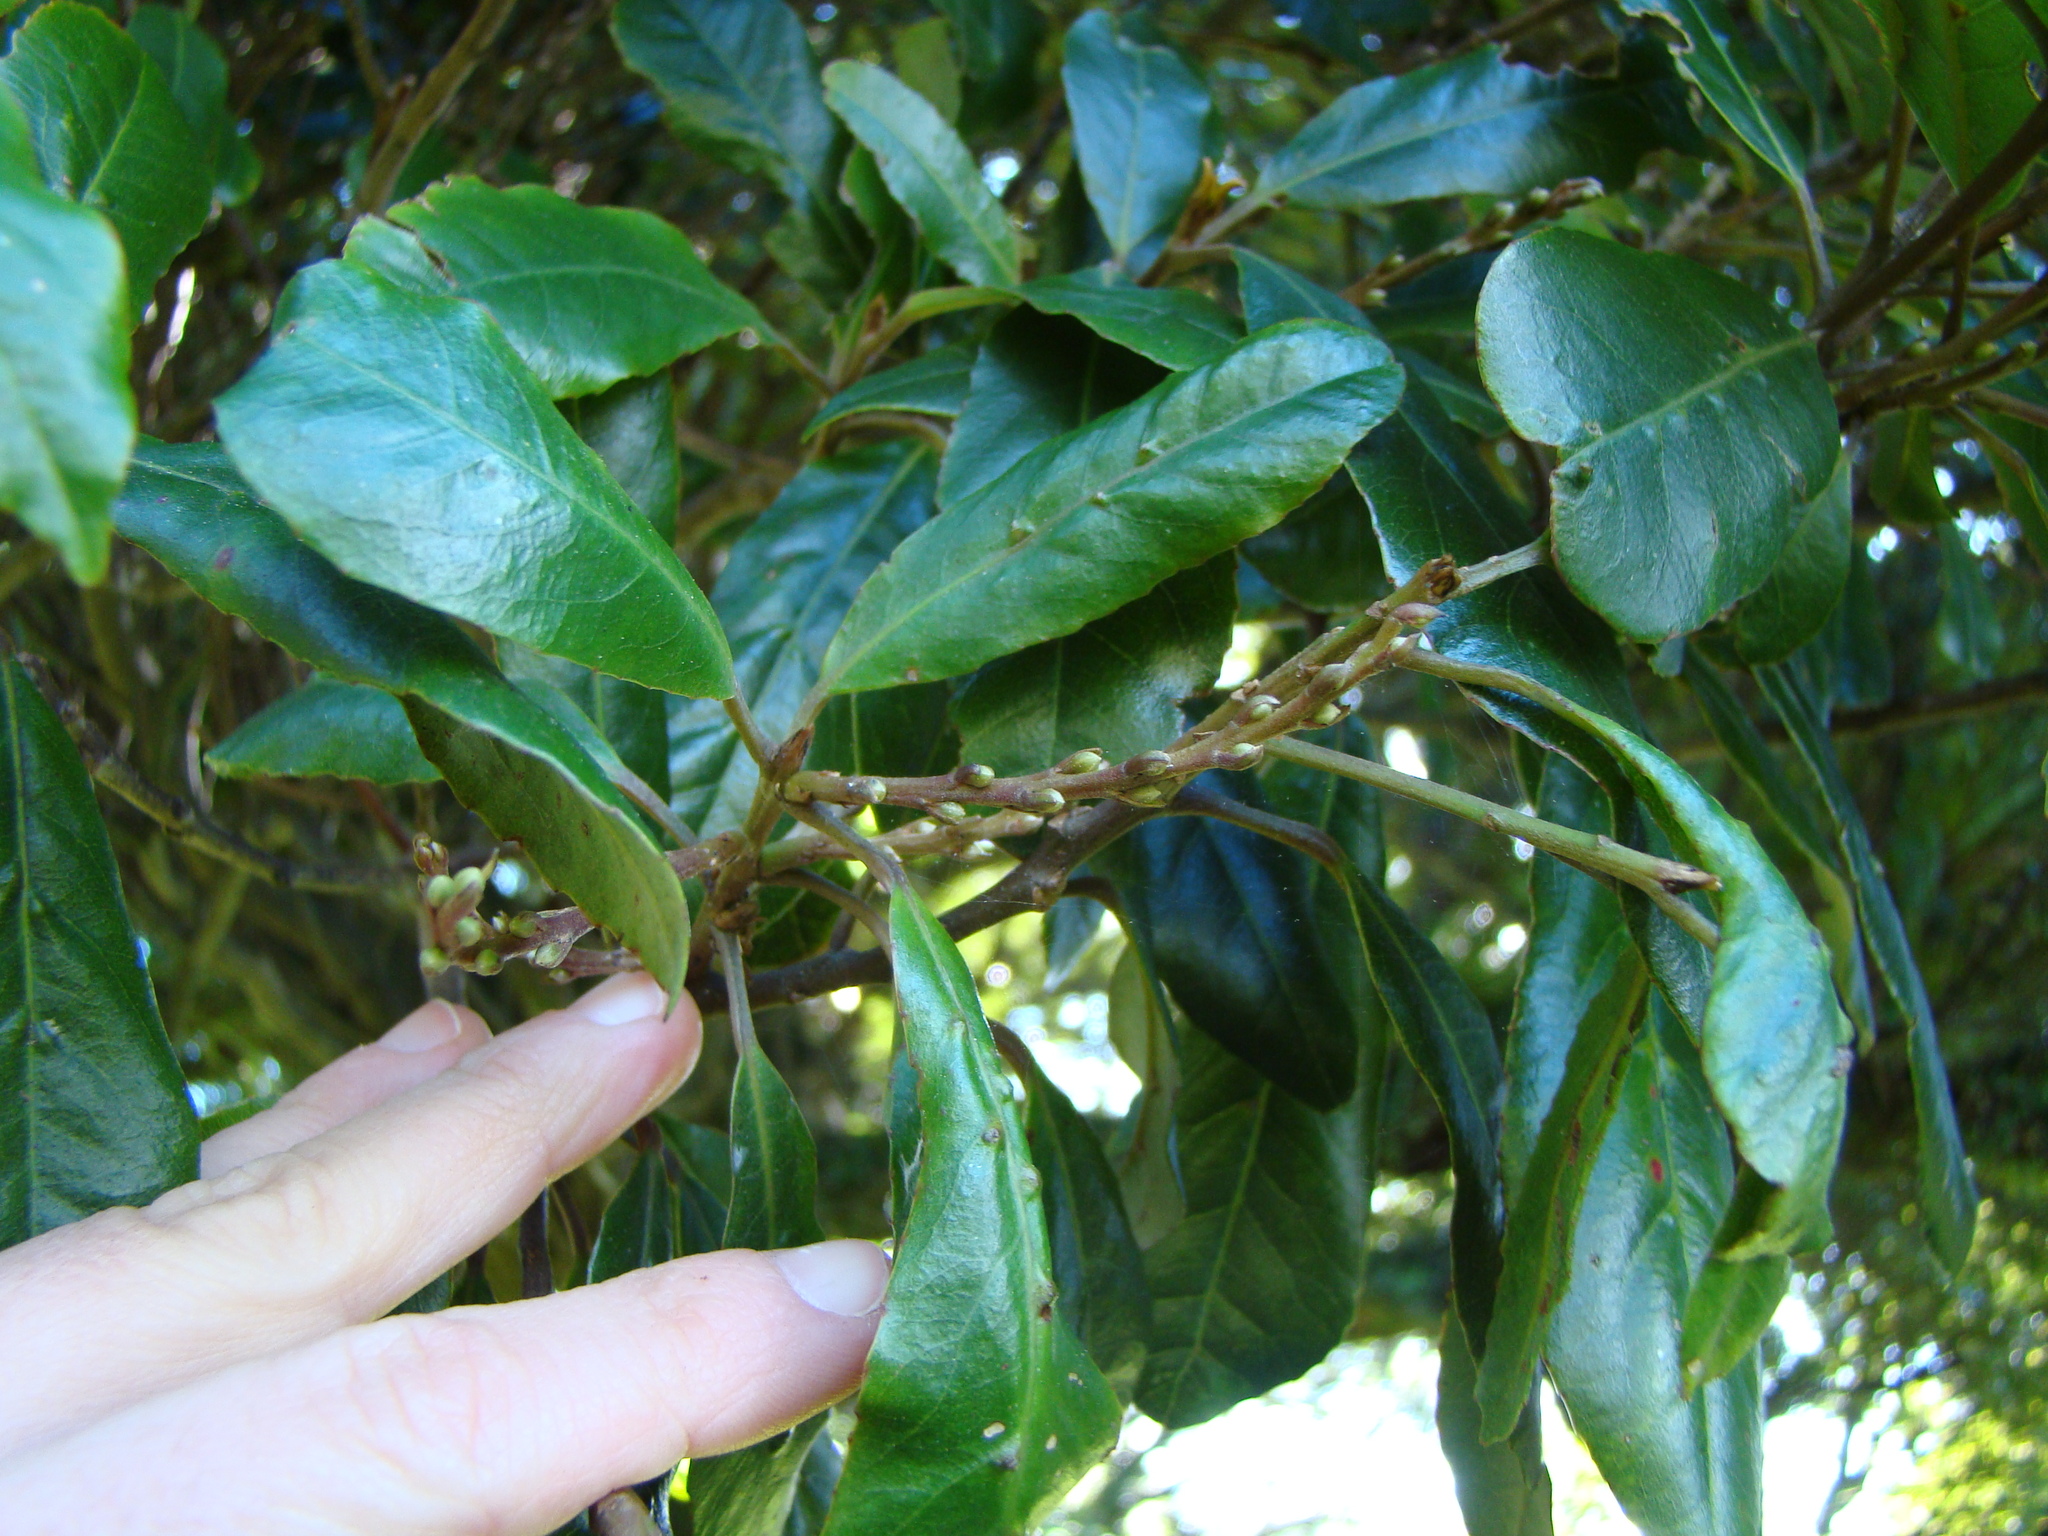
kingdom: Plantae
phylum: Tracheophyta
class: Magnoliopsida
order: Oxalidales
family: Elaeocarpaceae
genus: Elaeocarpus
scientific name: Elaeocarpus dentatus
